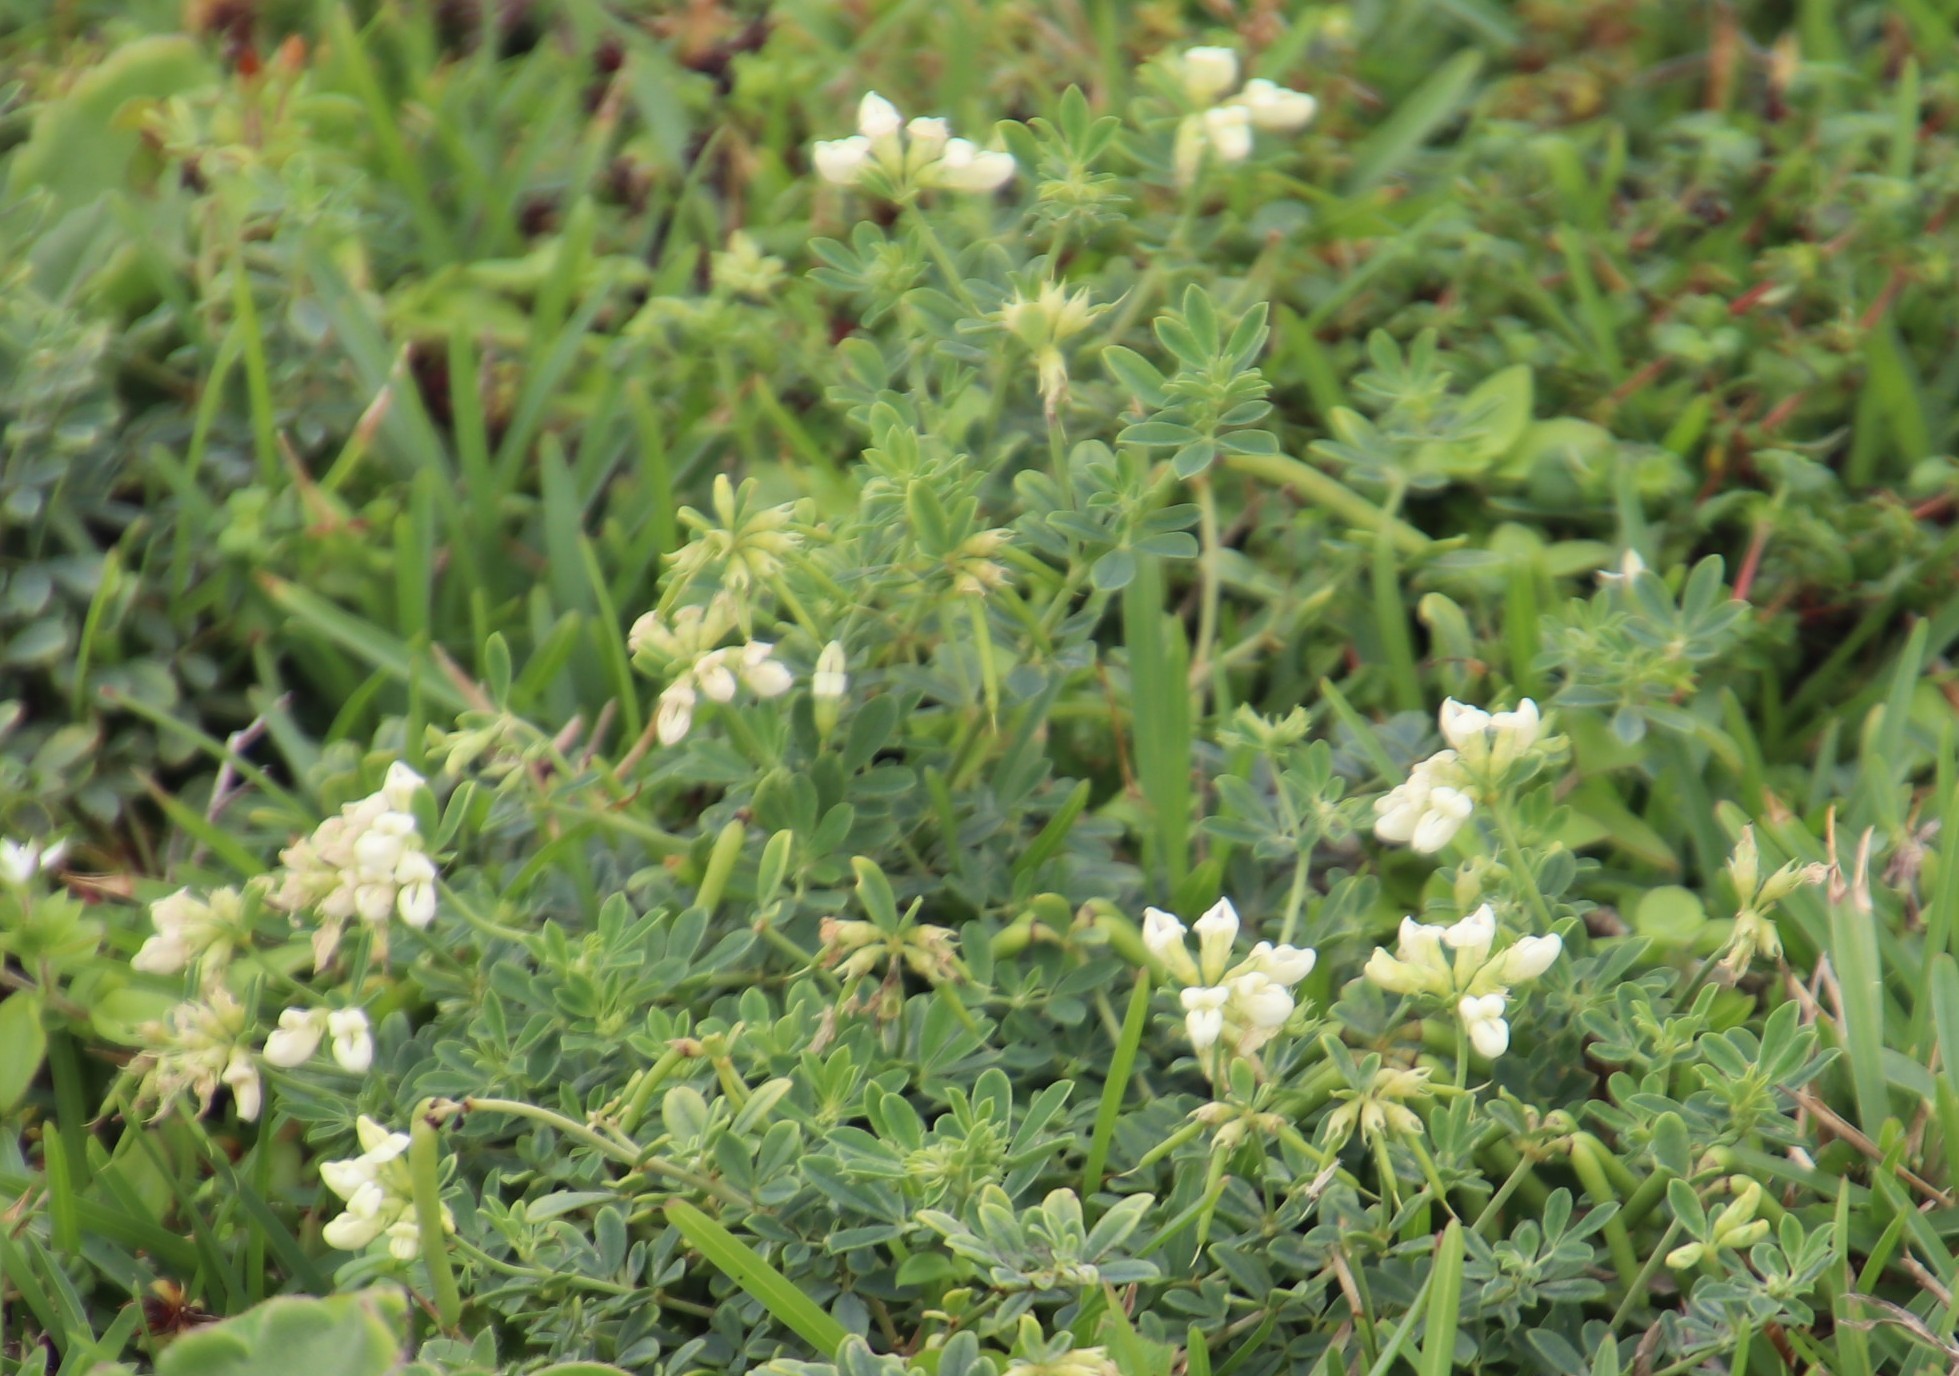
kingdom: Plantae
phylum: Tracheophyta
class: Magnoliopsida
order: Fabales
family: Fabaceae
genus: Lotus
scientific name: Lotus discolor
